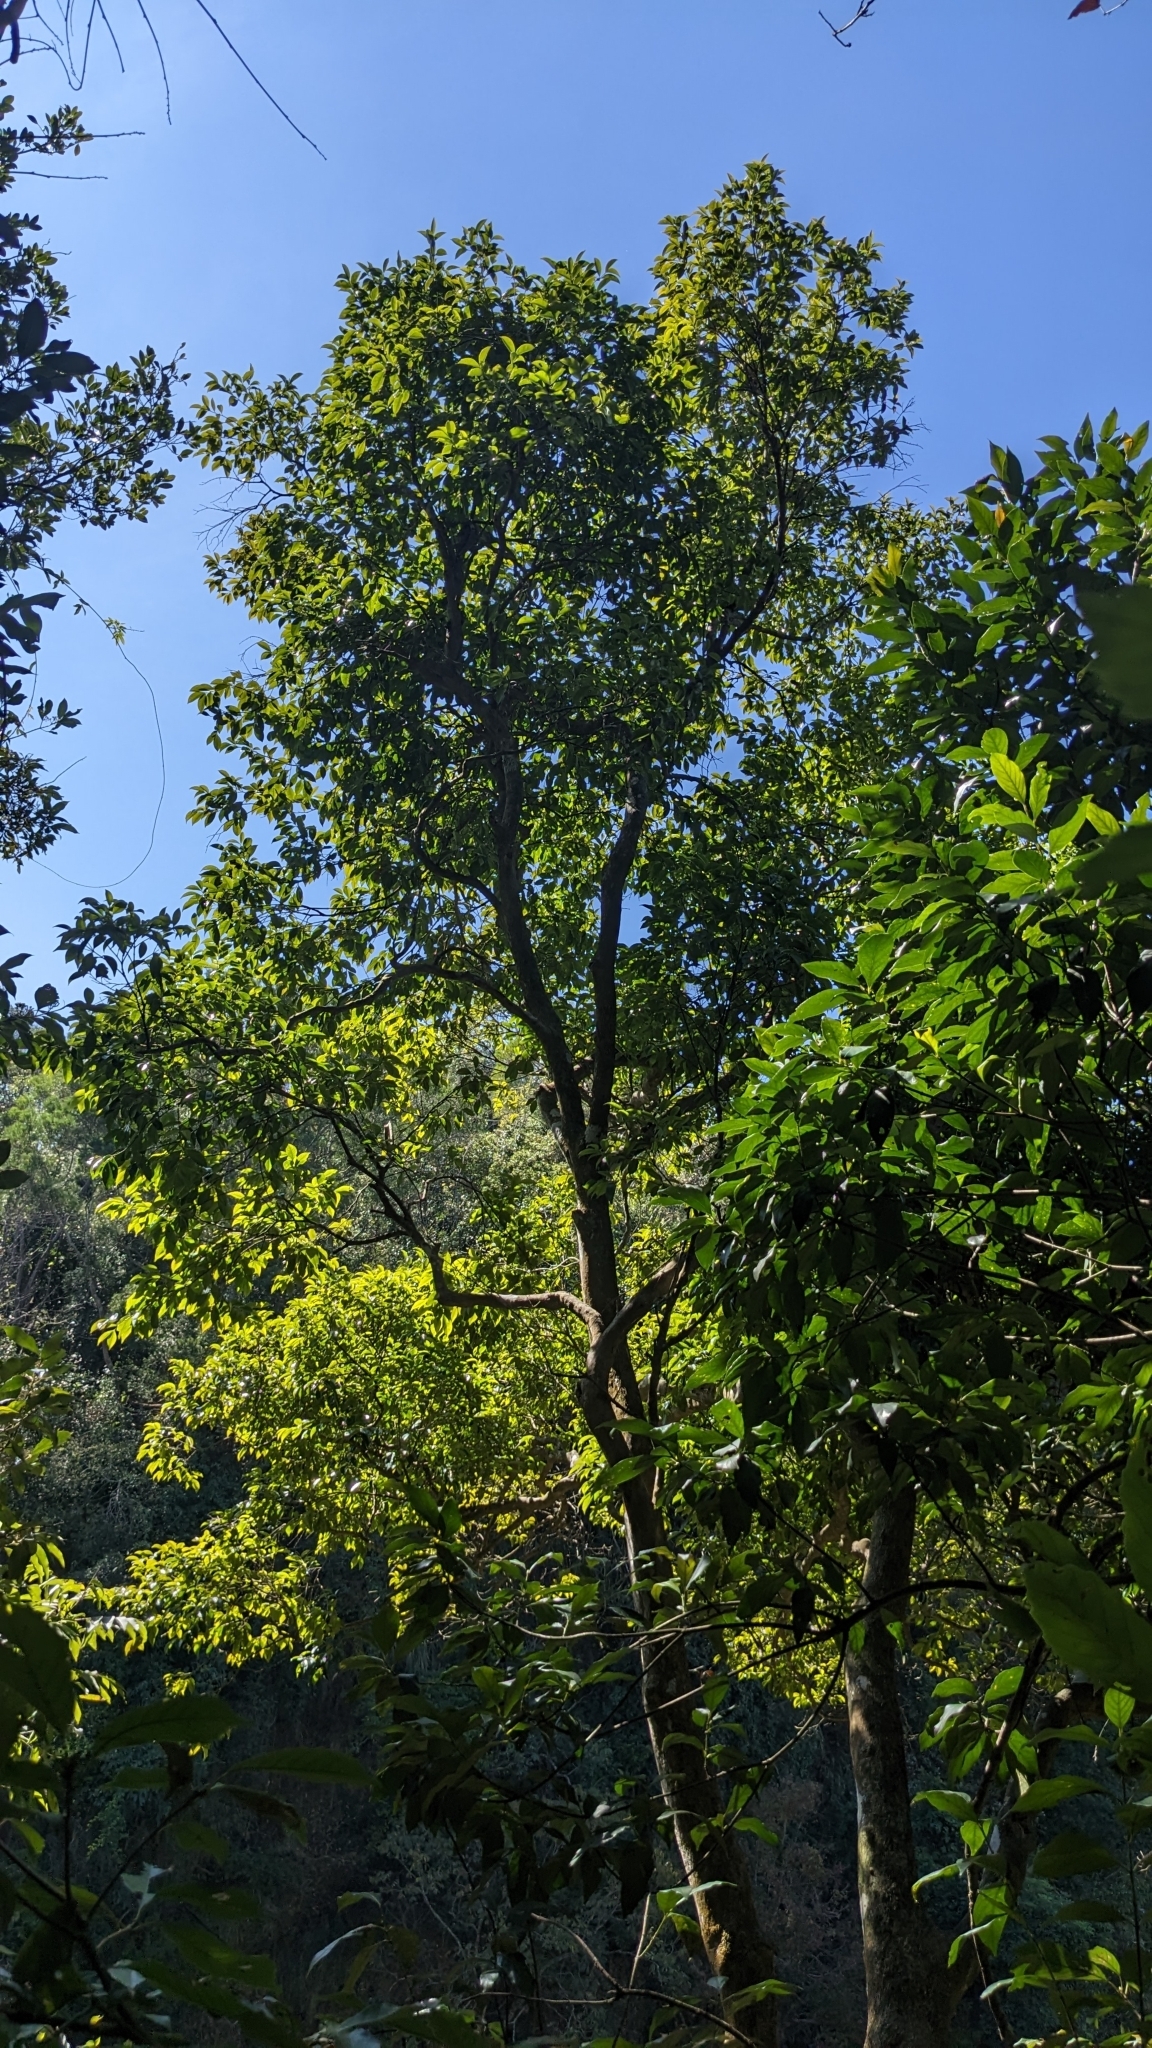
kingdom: Plantae
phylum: Tracheophyta
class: Magnoliopsida
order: Myrtales
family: Melastomataceae
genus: Memecylon
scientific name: Memecylon pendulum
